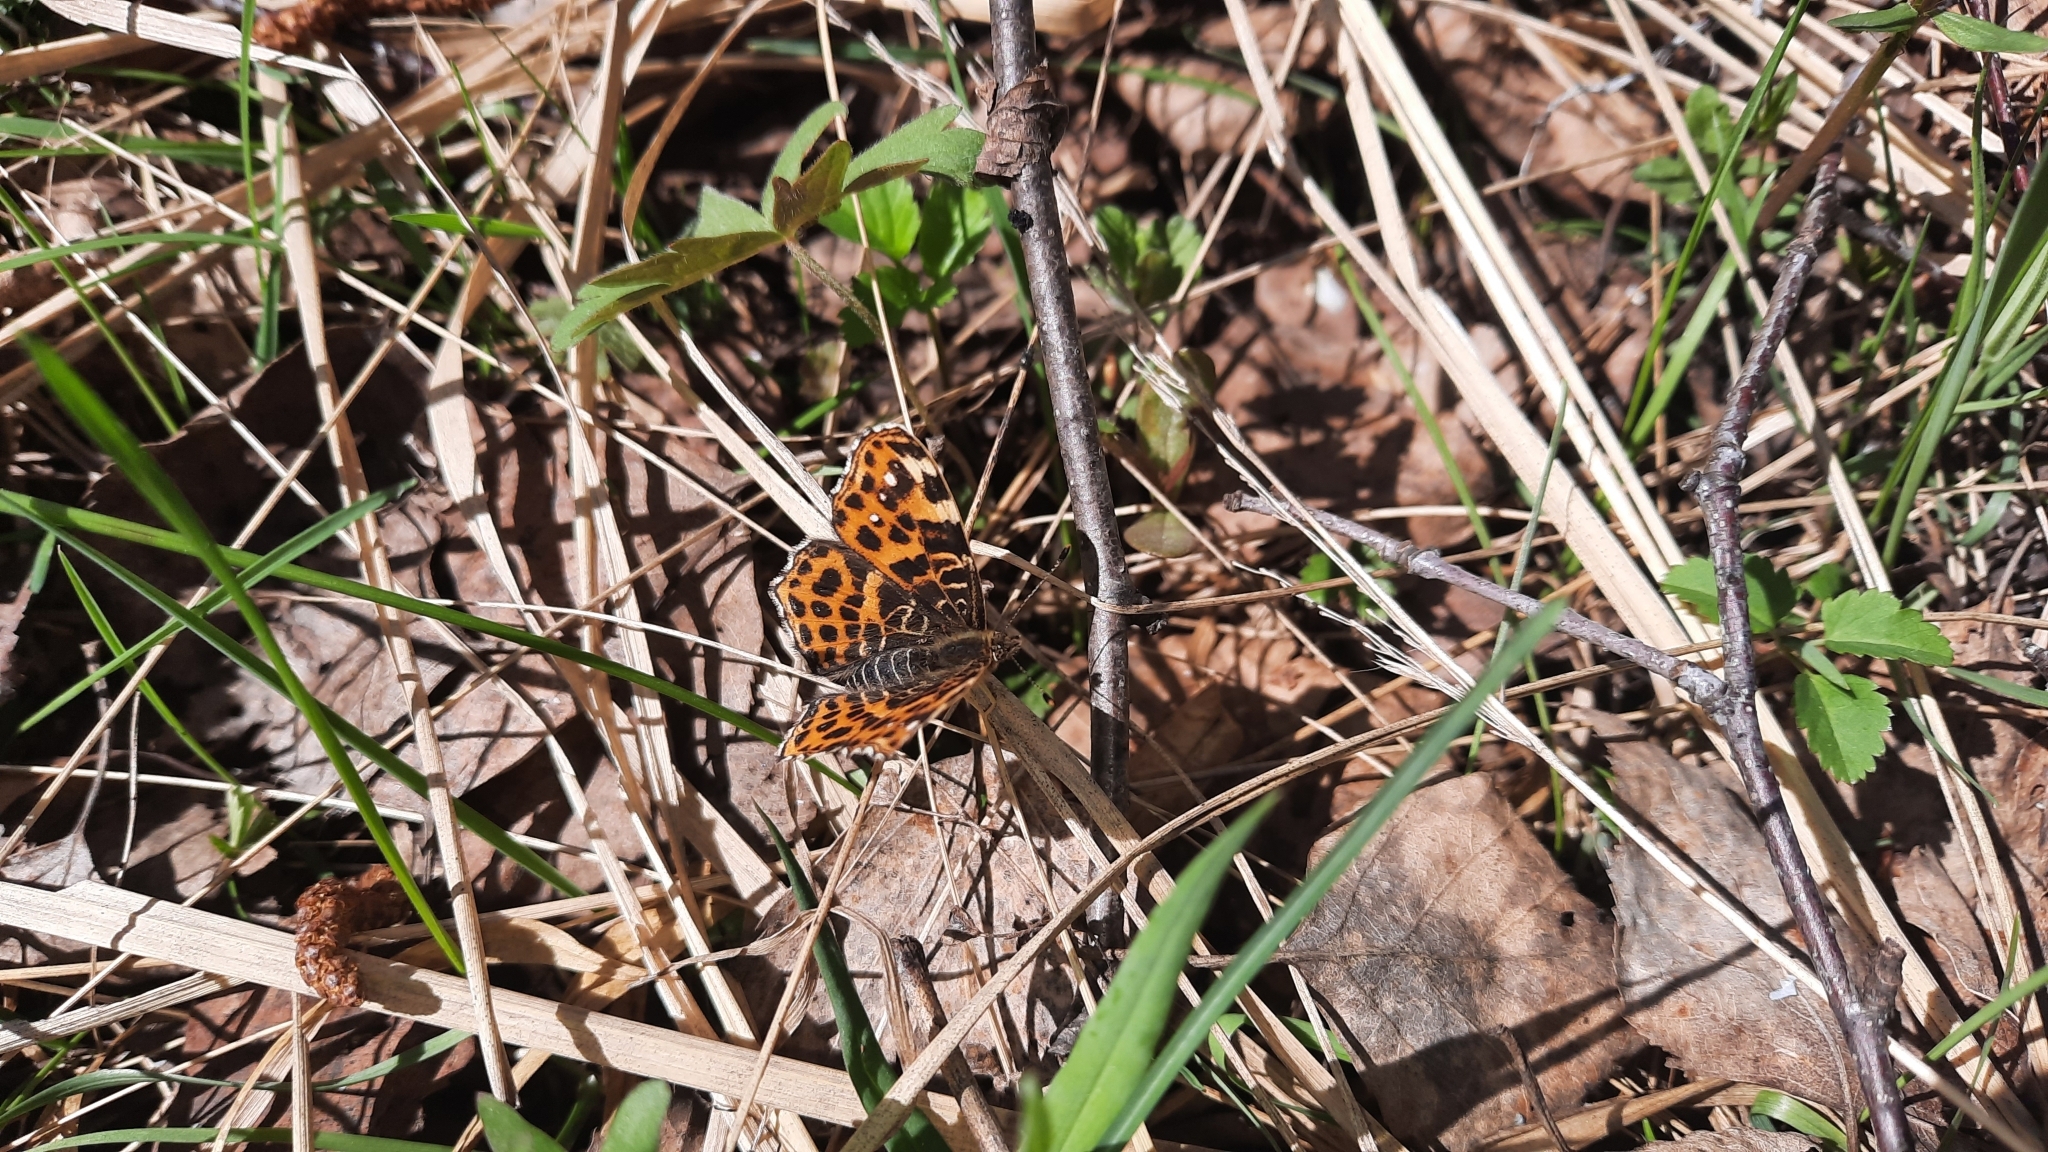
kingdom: Animalia
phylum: Arthropoda
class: Insecta
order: Lepidoptera
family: Nymphalidae
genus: Araschnia
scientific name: Araschnia levana
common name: Map butterfly
